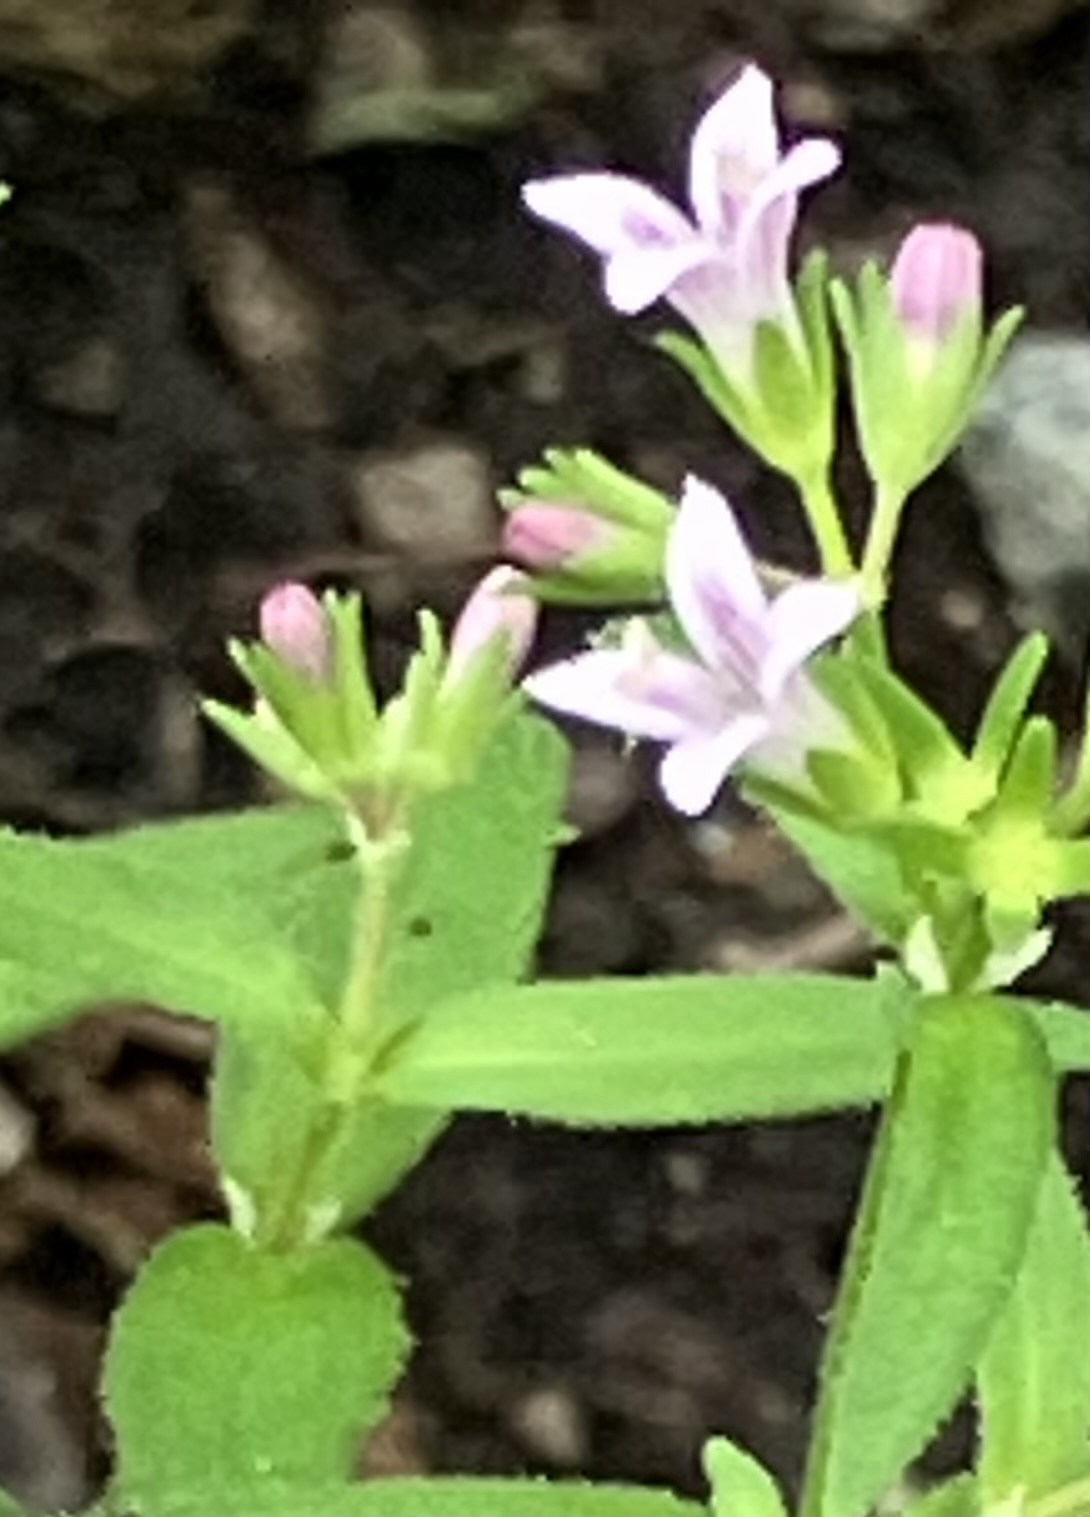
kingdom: Plantae
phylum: Tracheophyta
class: Magnoliopsida
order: Gentianales
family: Rubiaceae
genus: Houstonia
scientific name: Houstonia purpurea
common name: Summer bluet
